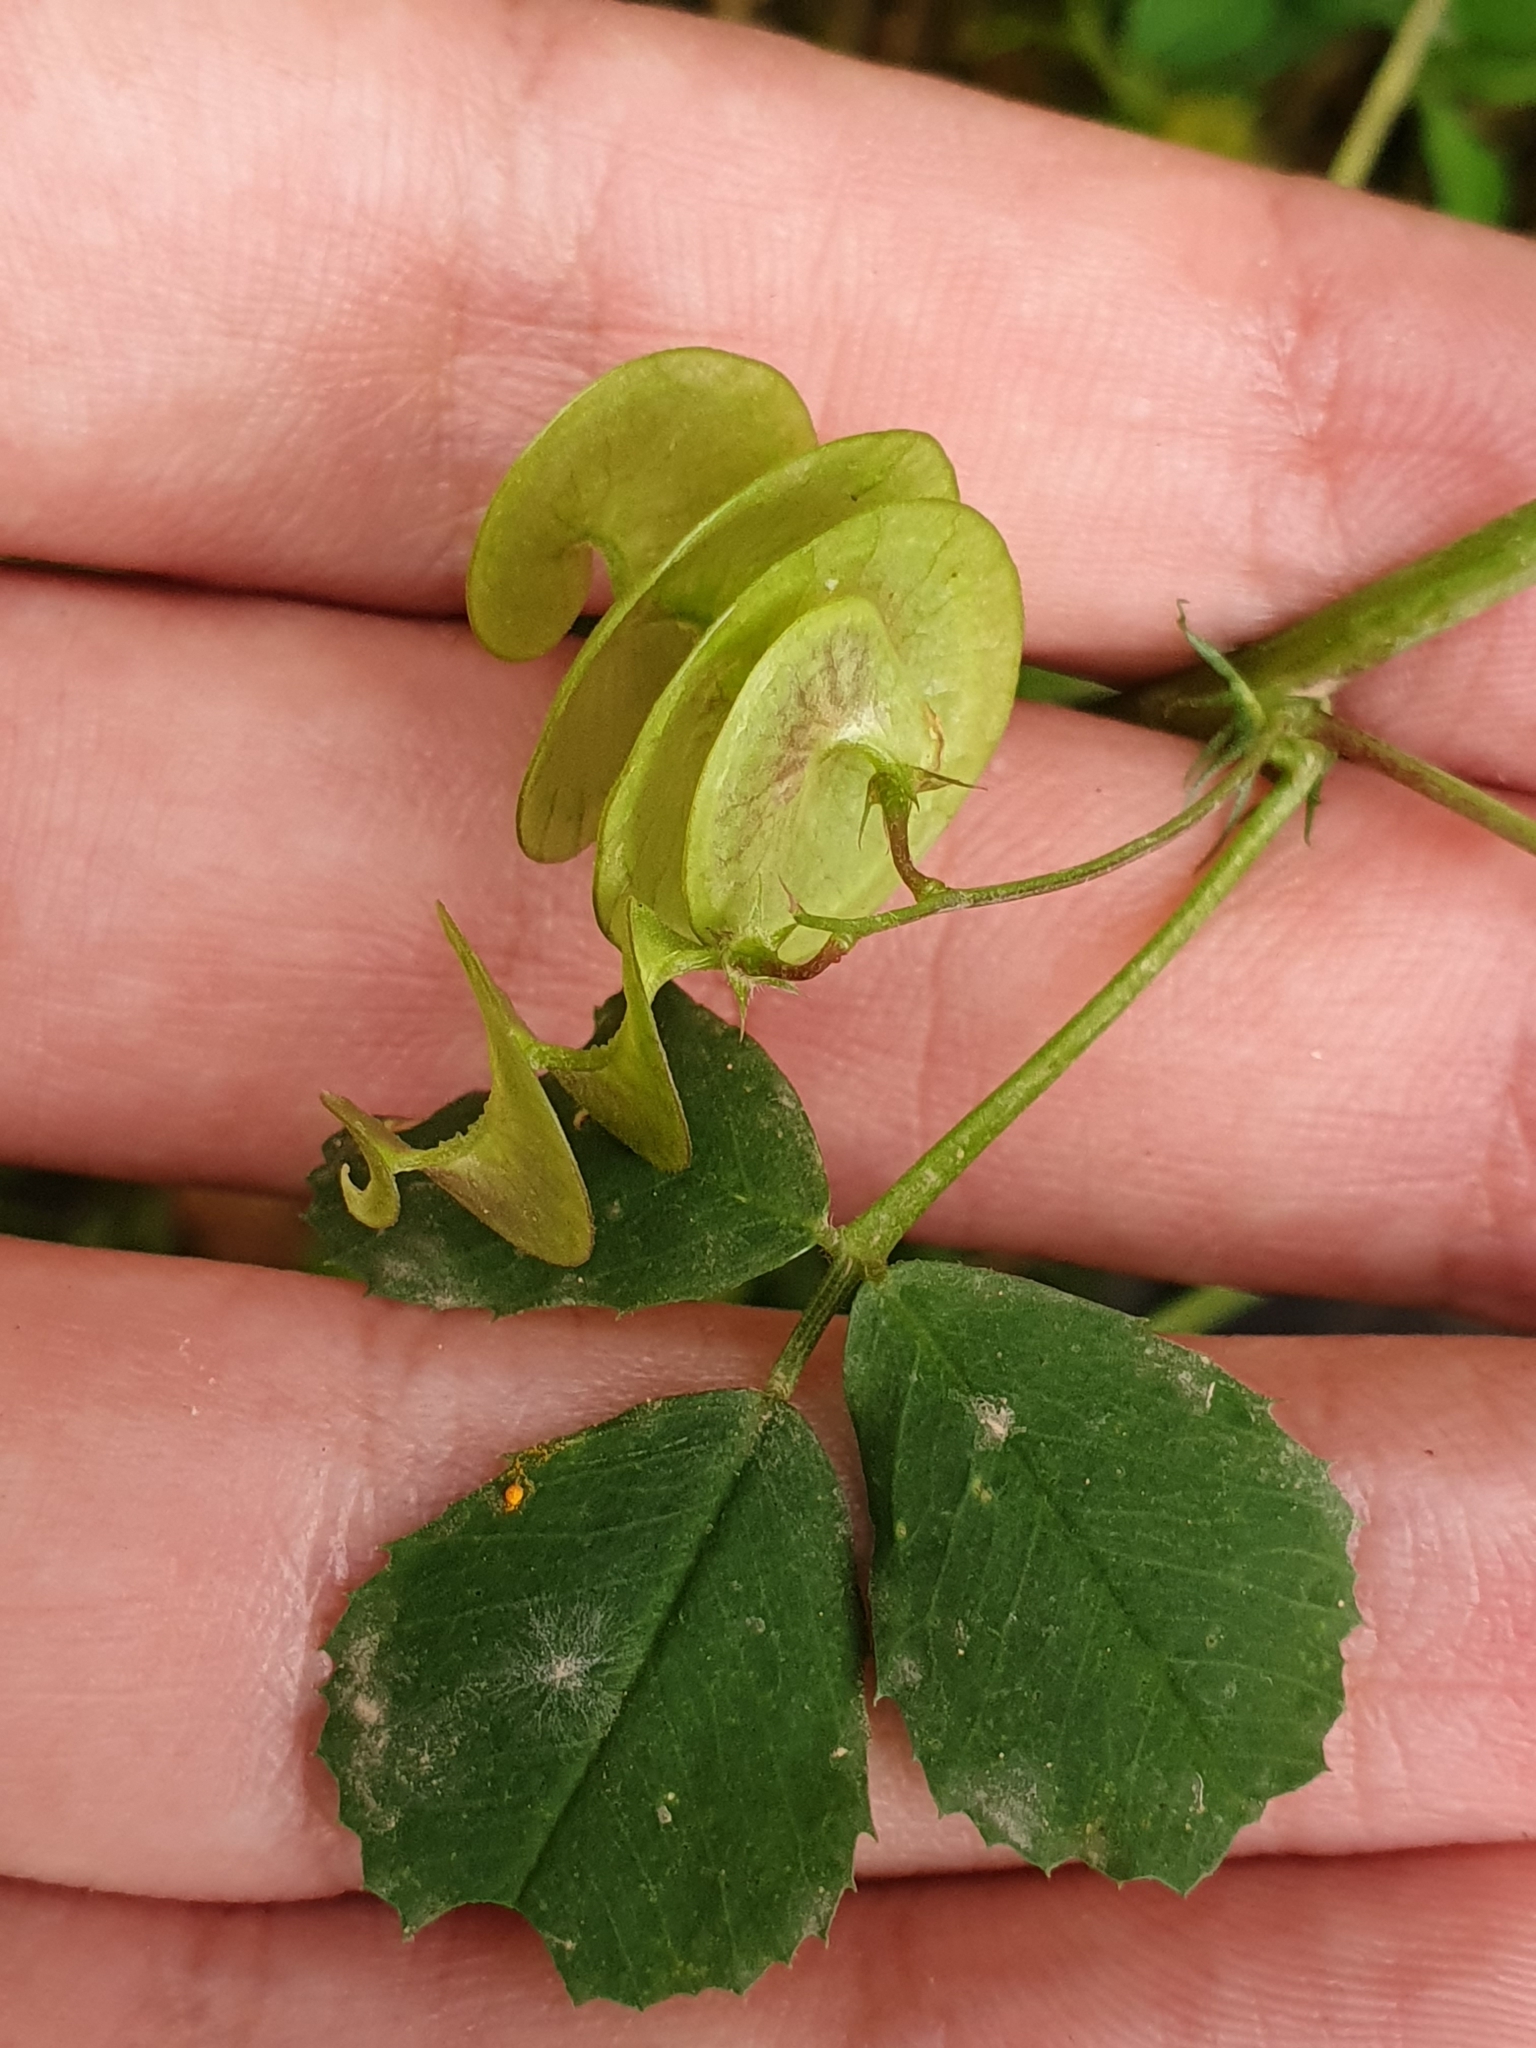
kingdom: Plantae
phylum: Tracheophyta
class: Magnoliopsida
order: Fabales
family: Fabaceae
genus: Medicago
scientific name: Medicago orbicularis
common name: Button medick
